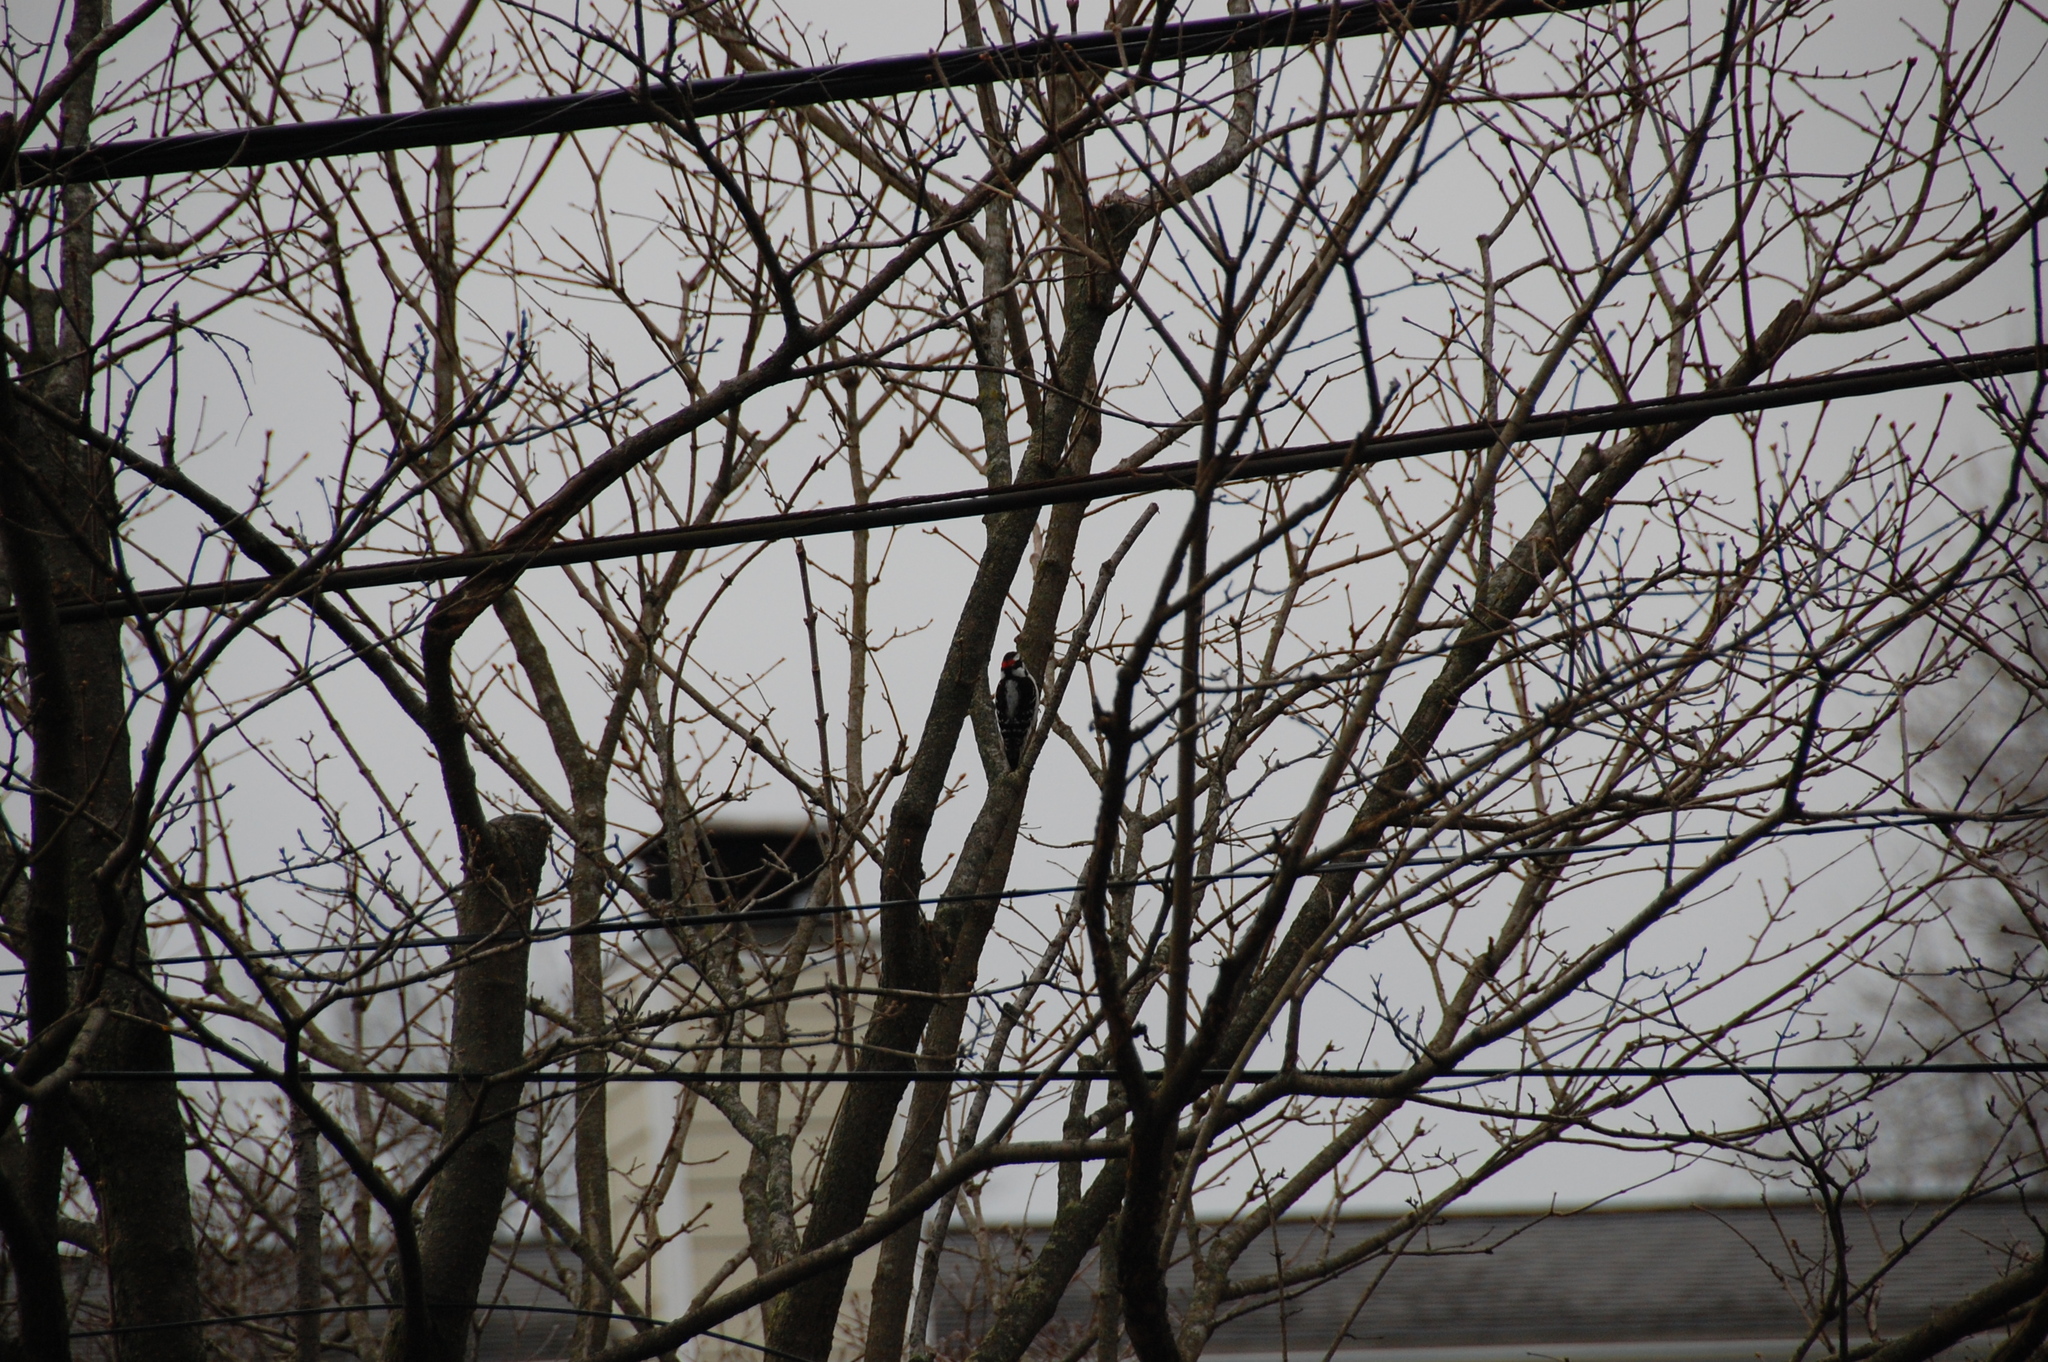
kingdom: Animalia
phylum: Chordata
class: Aves
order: Piciformes
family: Picidae
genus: Dryobates
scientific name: Dryobates pubescens
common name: Downy woodpecker
